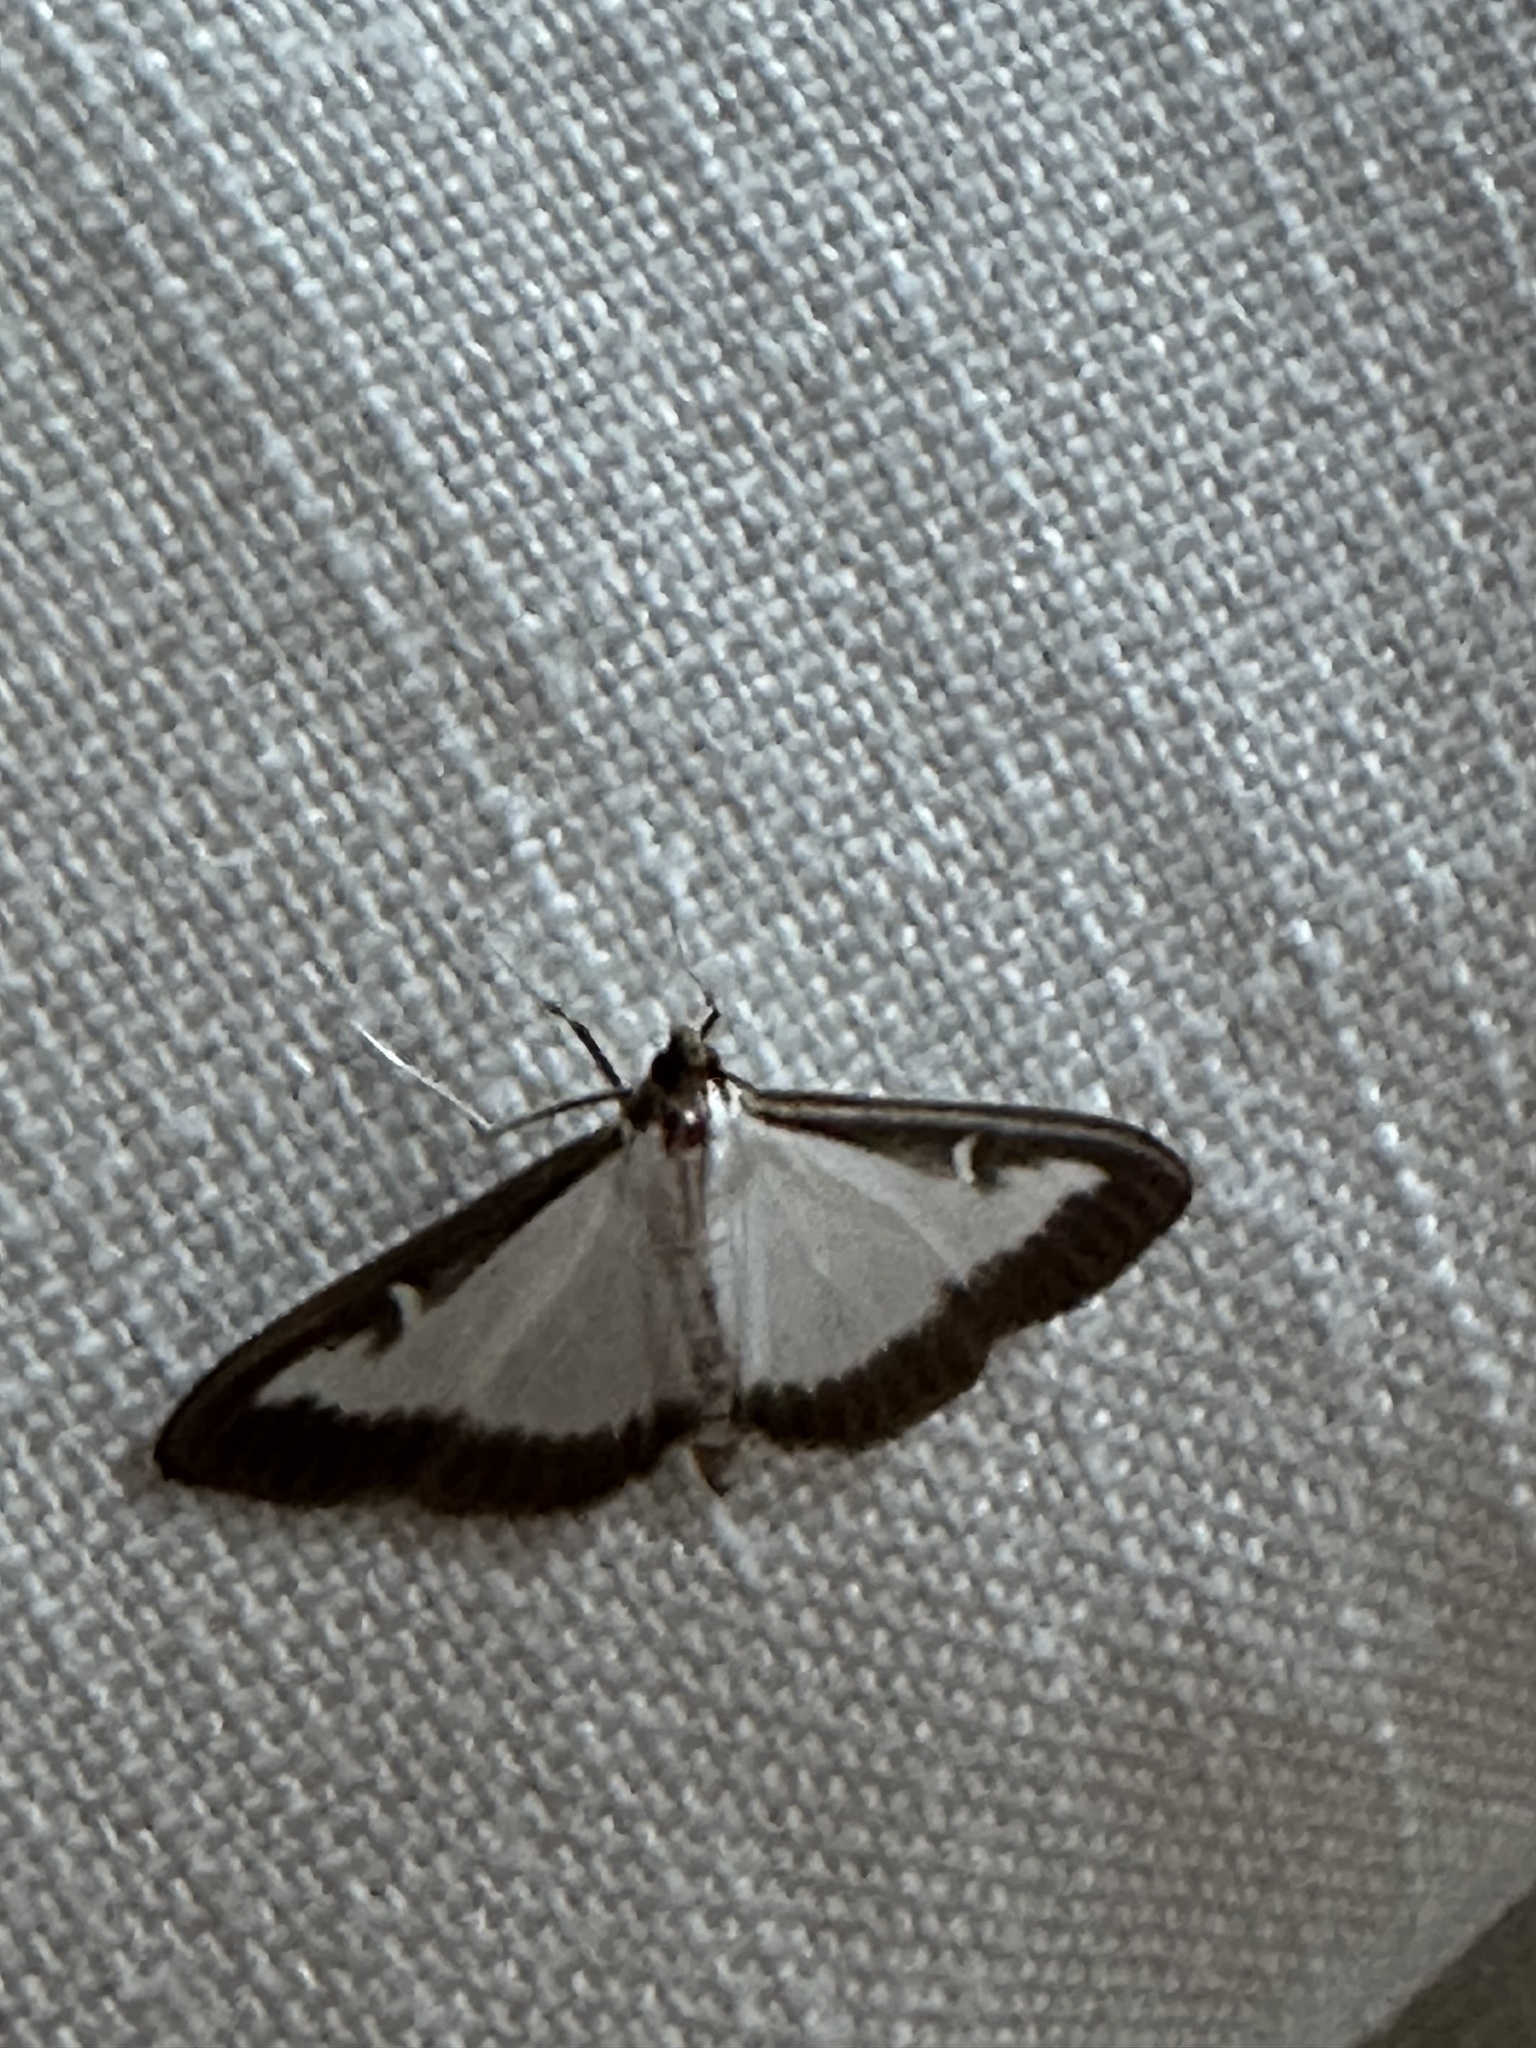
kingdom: Animalia
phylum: Arthropoda
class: Insecta
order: Lepidoptera
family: Crambidae
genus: Cydalima
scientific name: Cydalima perspectalis
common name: Box tree moth
